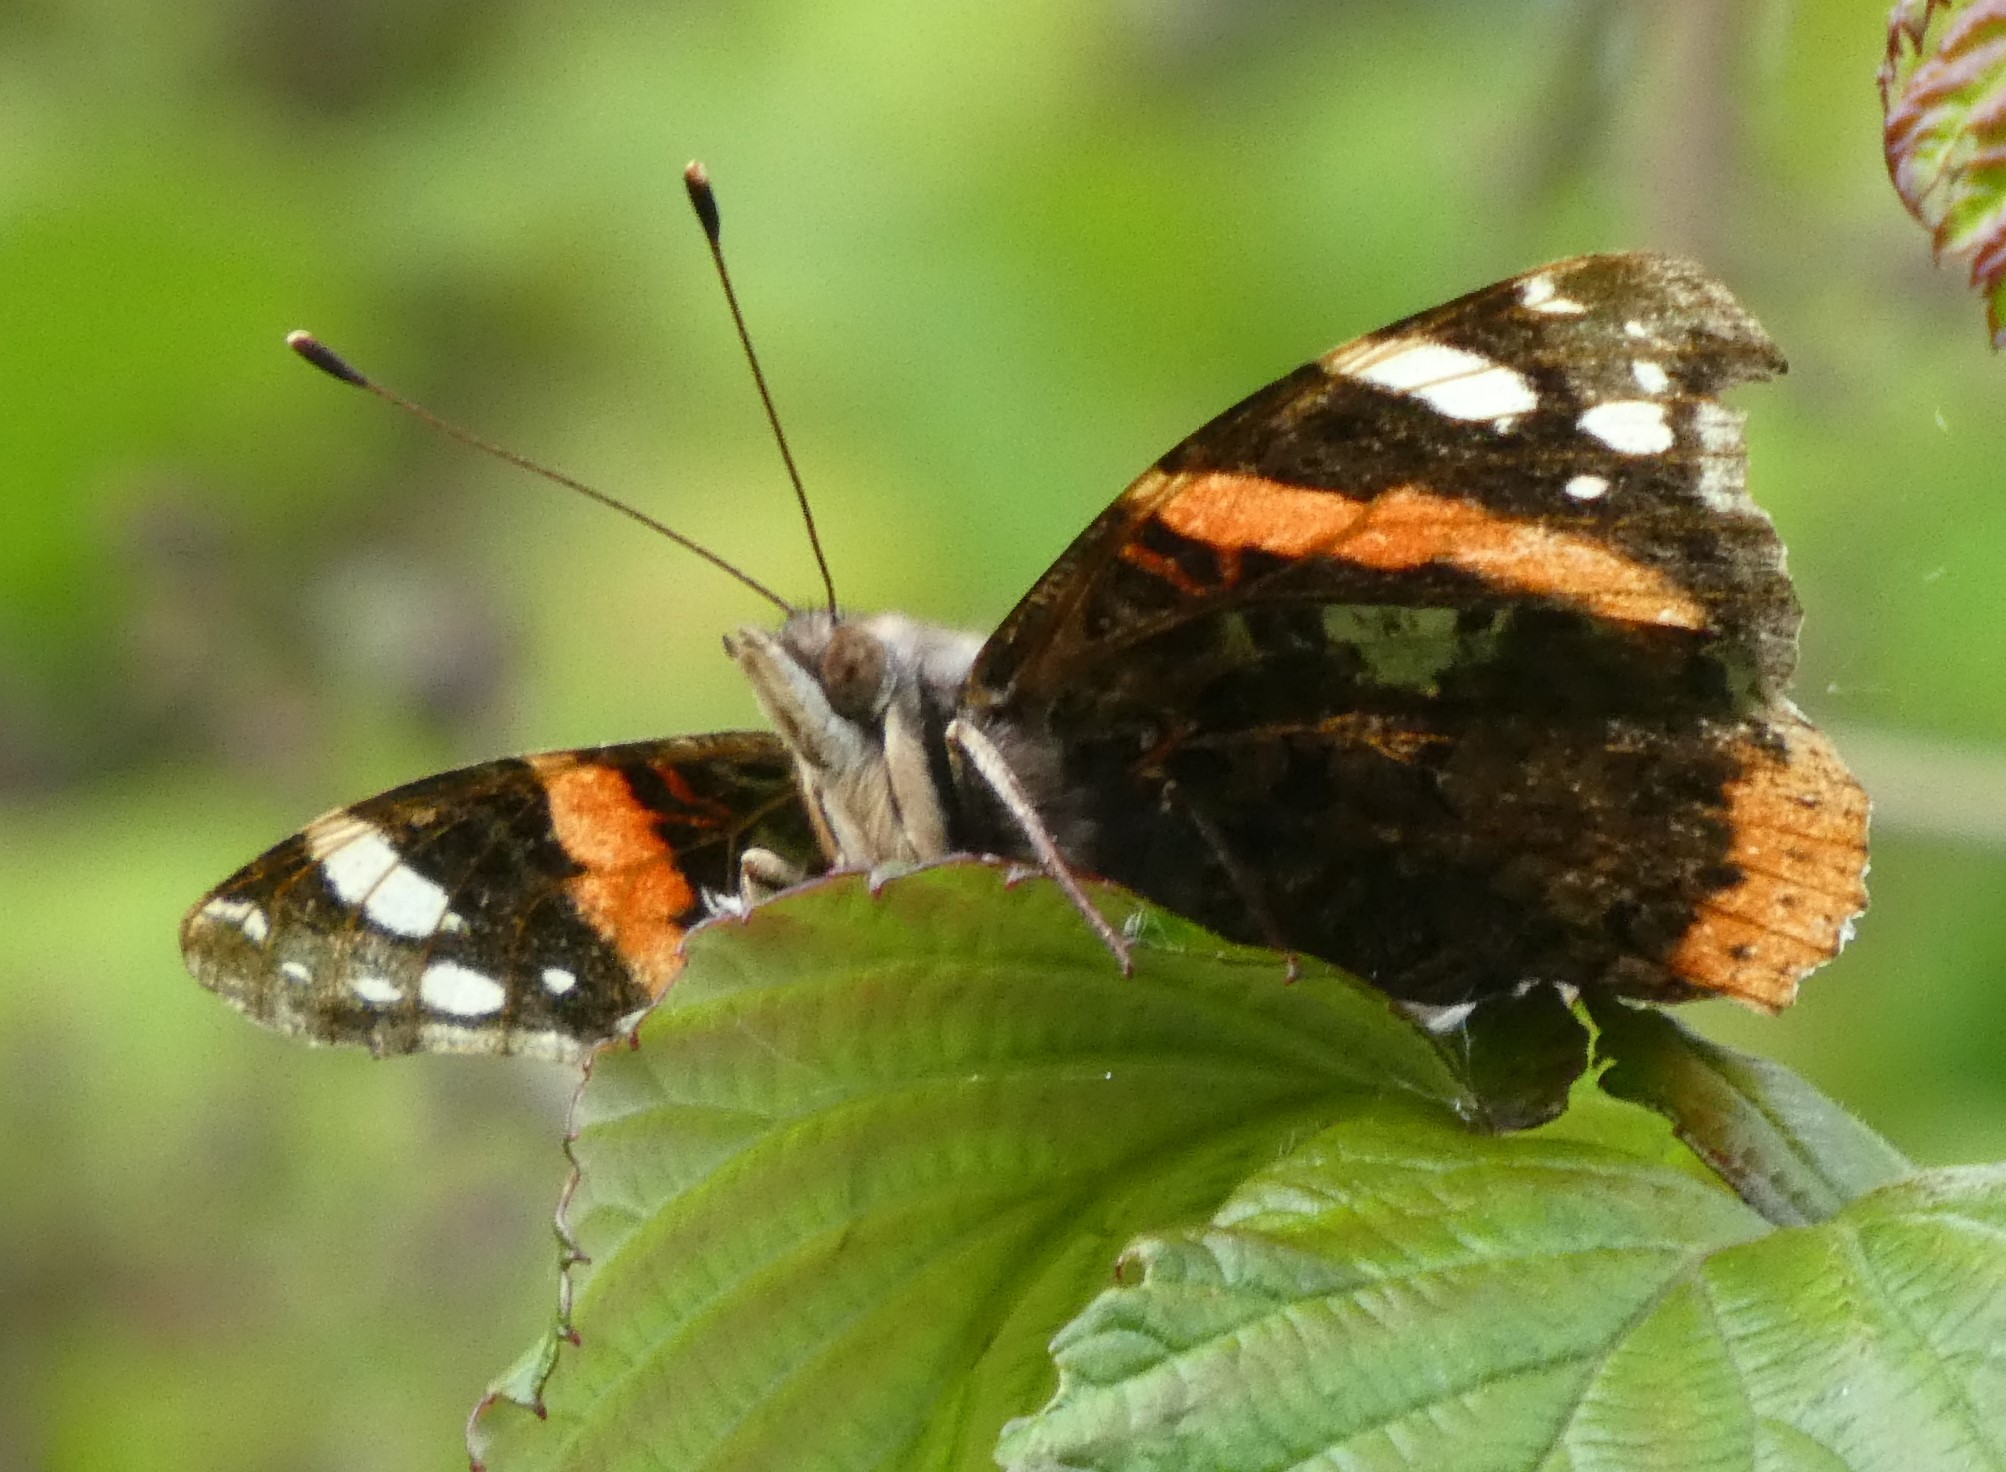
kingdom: Animalia
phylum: Arthropoda
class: Insecta
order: Lepidoptera
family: Nymphalidae
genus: Vanessa
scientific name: Vanessa atalanta
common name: Red admiral
